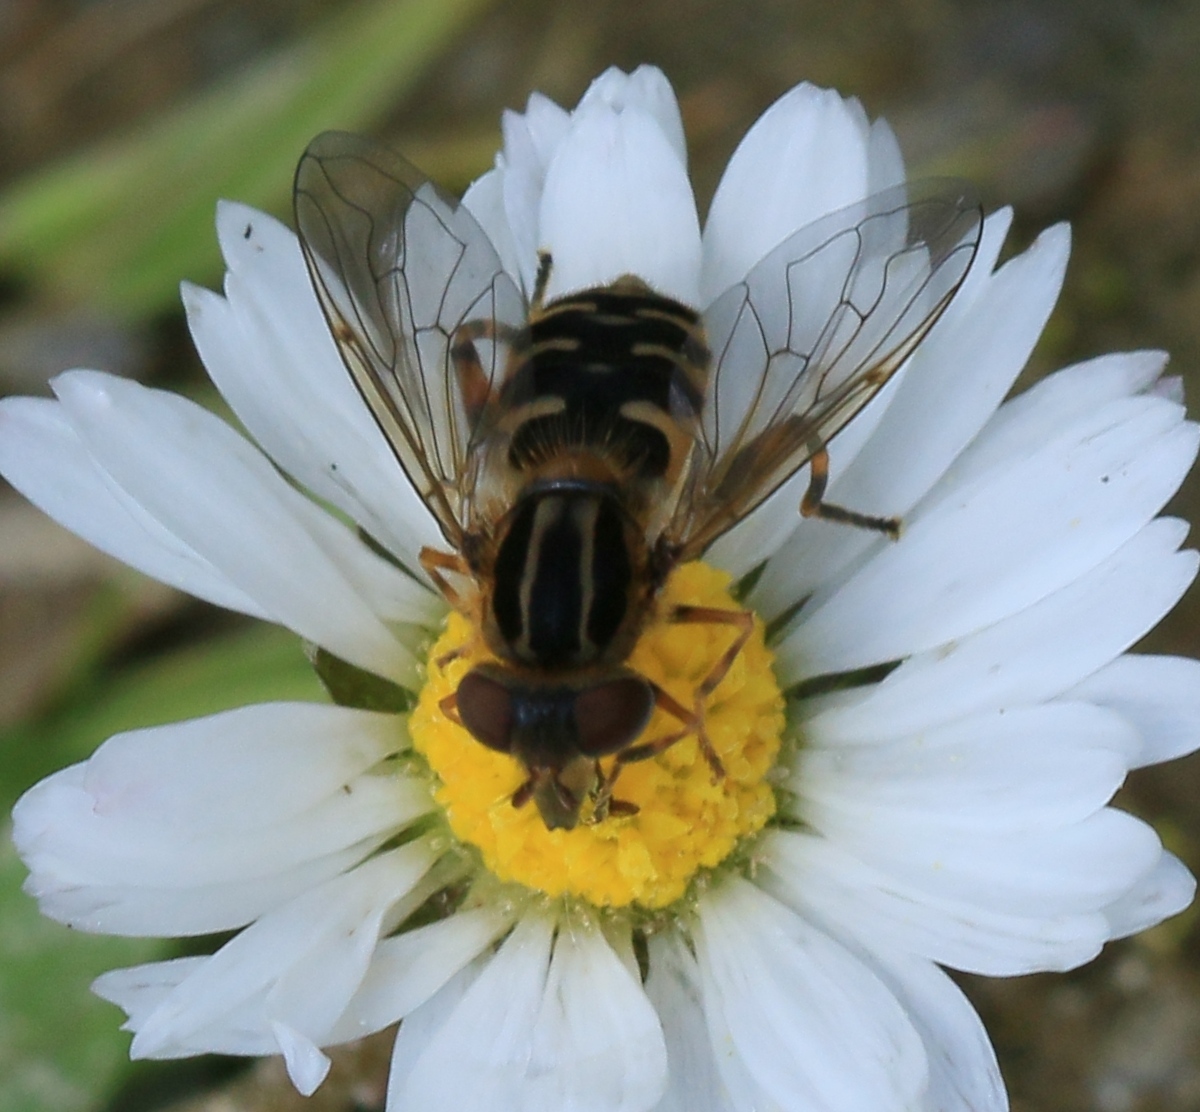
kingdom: Animalia
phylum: Arthropoda
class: Insecta
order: Diptera
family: Syrphidae
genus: Eurimyia
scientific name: Eurimyia lineatus
